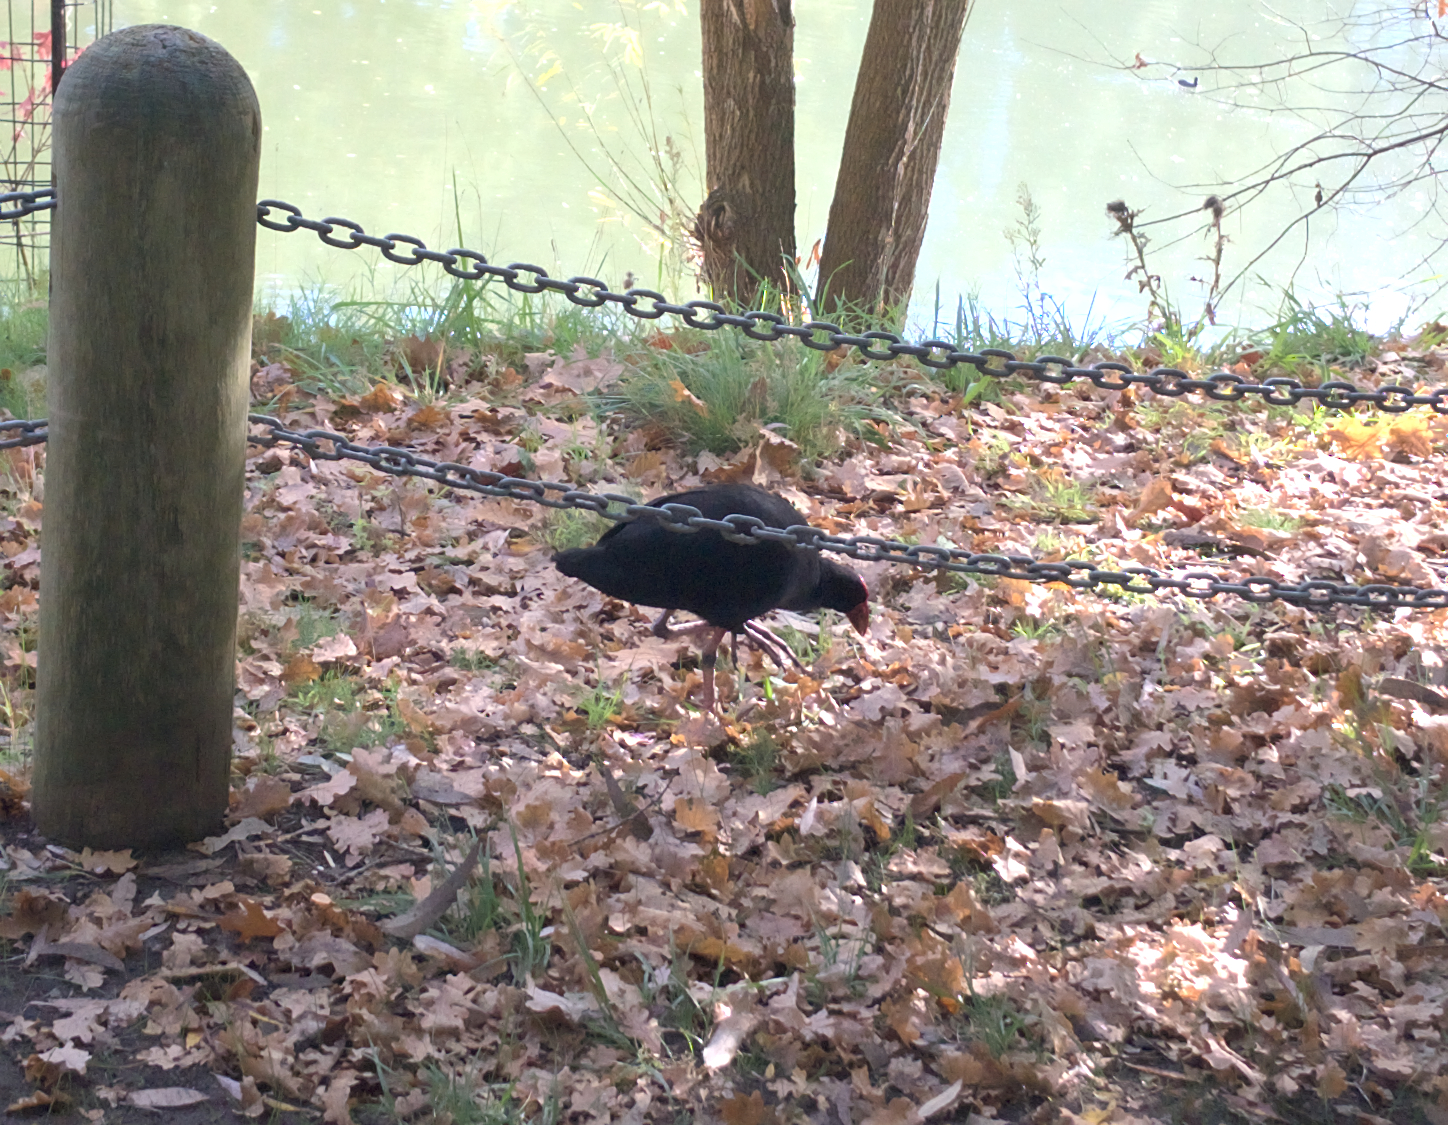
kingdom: Animalia
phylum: Chordata
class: Aves
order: Gruiformes
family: Rallidae
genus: Porphyrio
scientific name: Porphyrio melanotus
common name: Australasian swamphen
